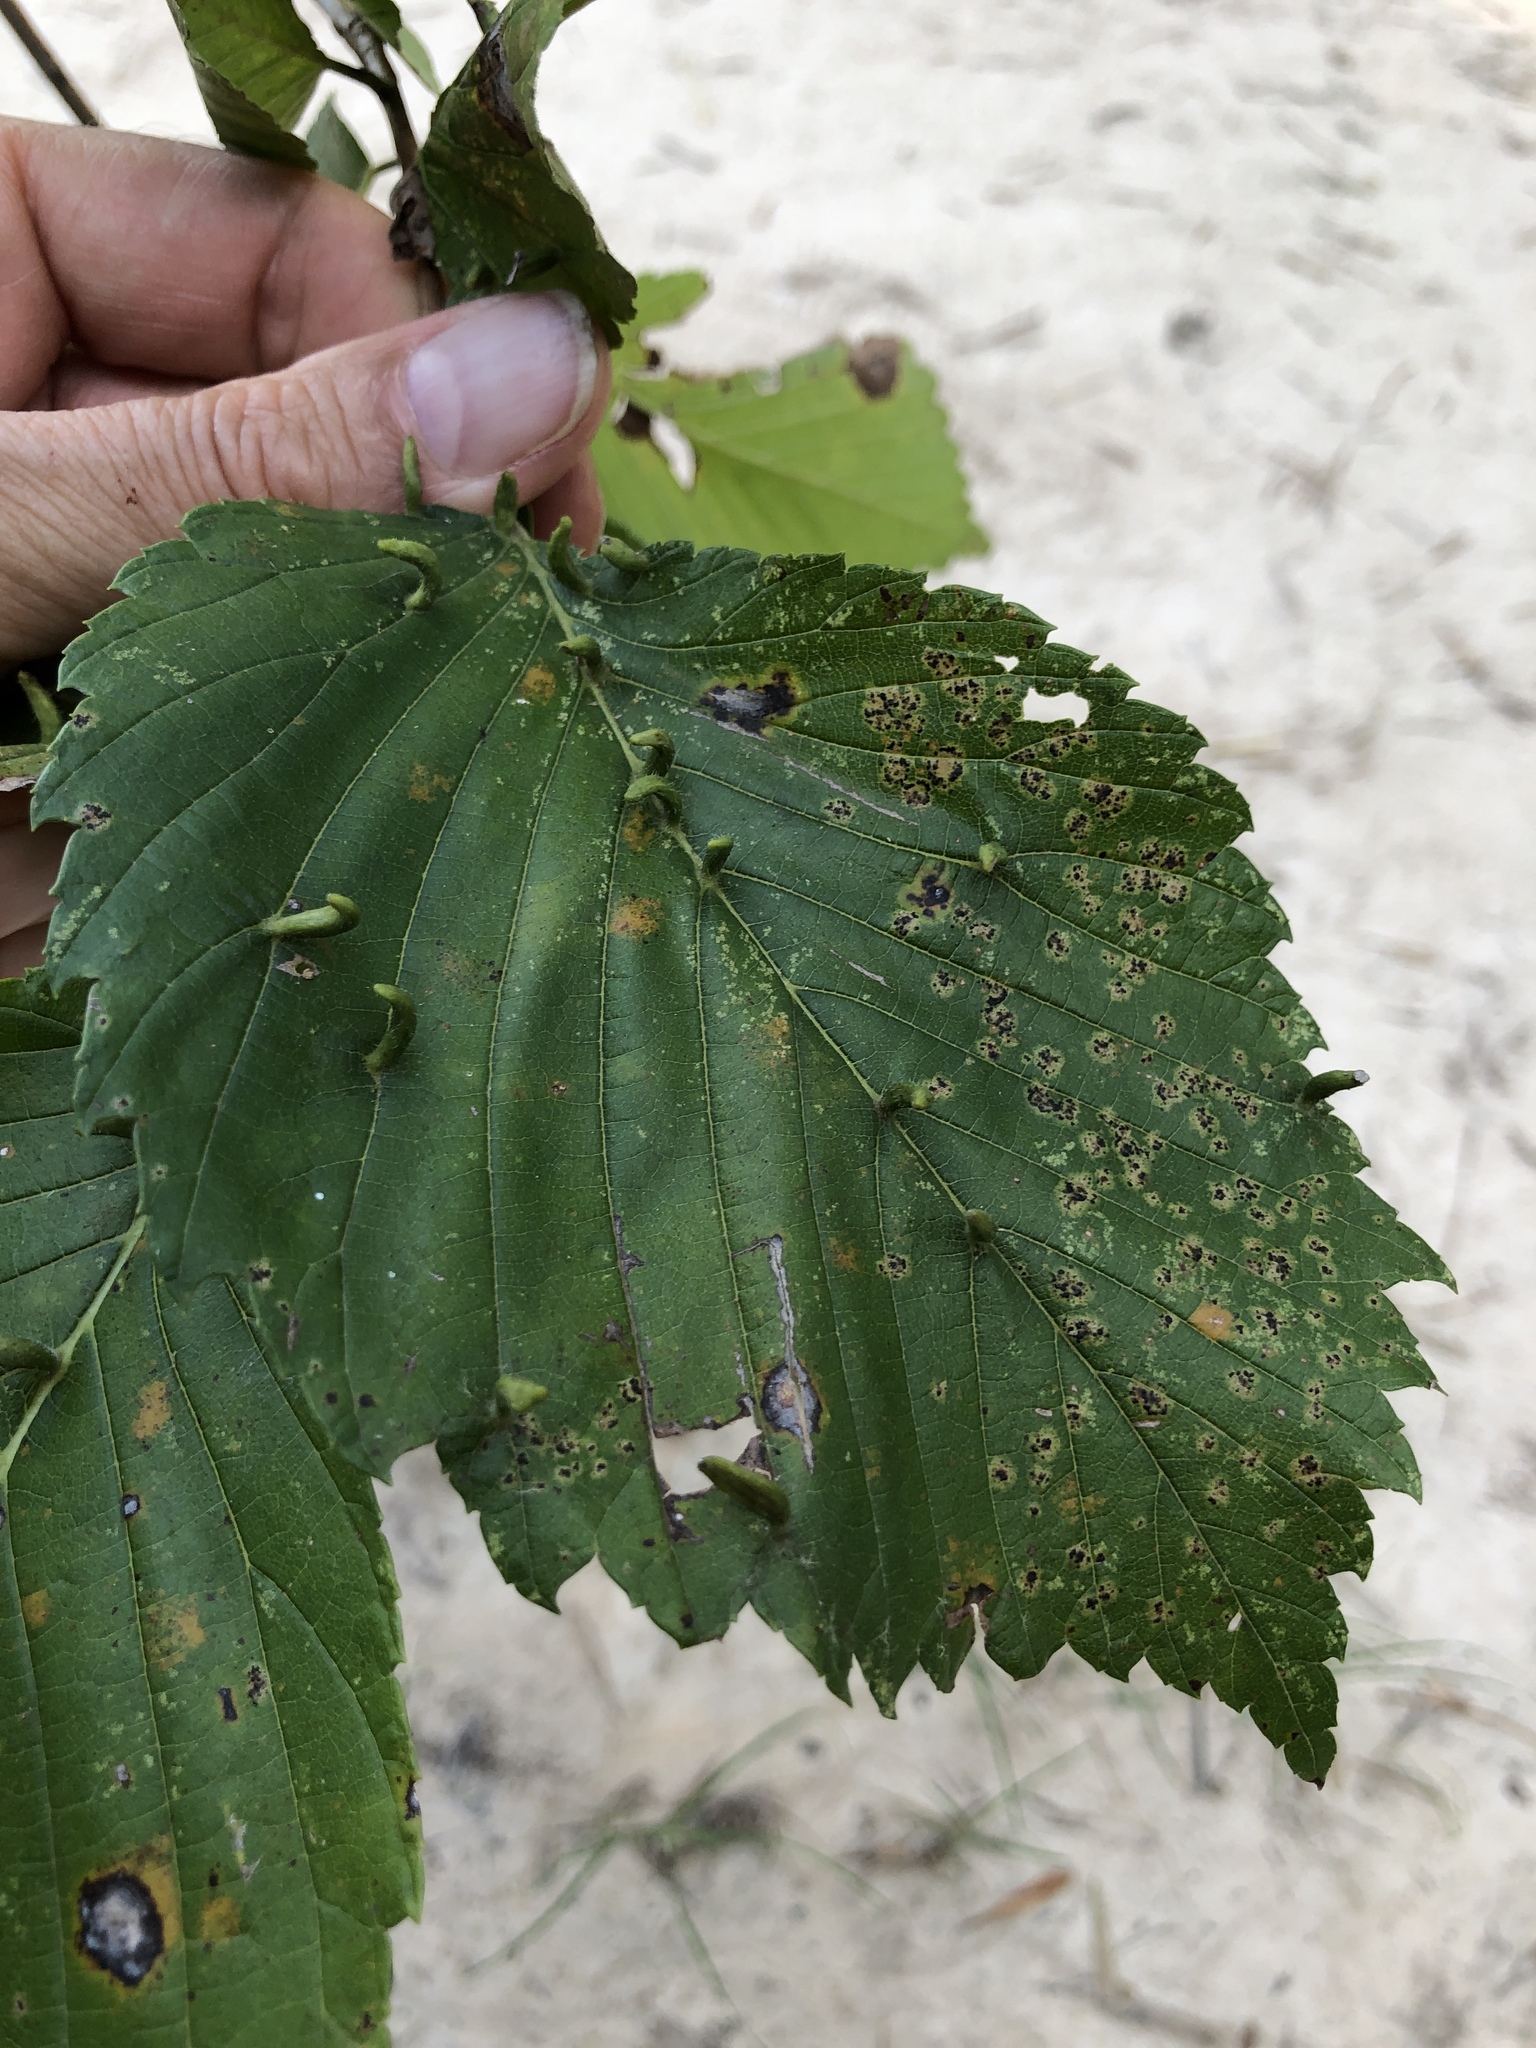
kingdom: Animalia
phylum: Arthropoda
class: Arachnida
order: Trombidiformes
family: Eriophyidae
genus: Aceria
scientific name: Aceria
